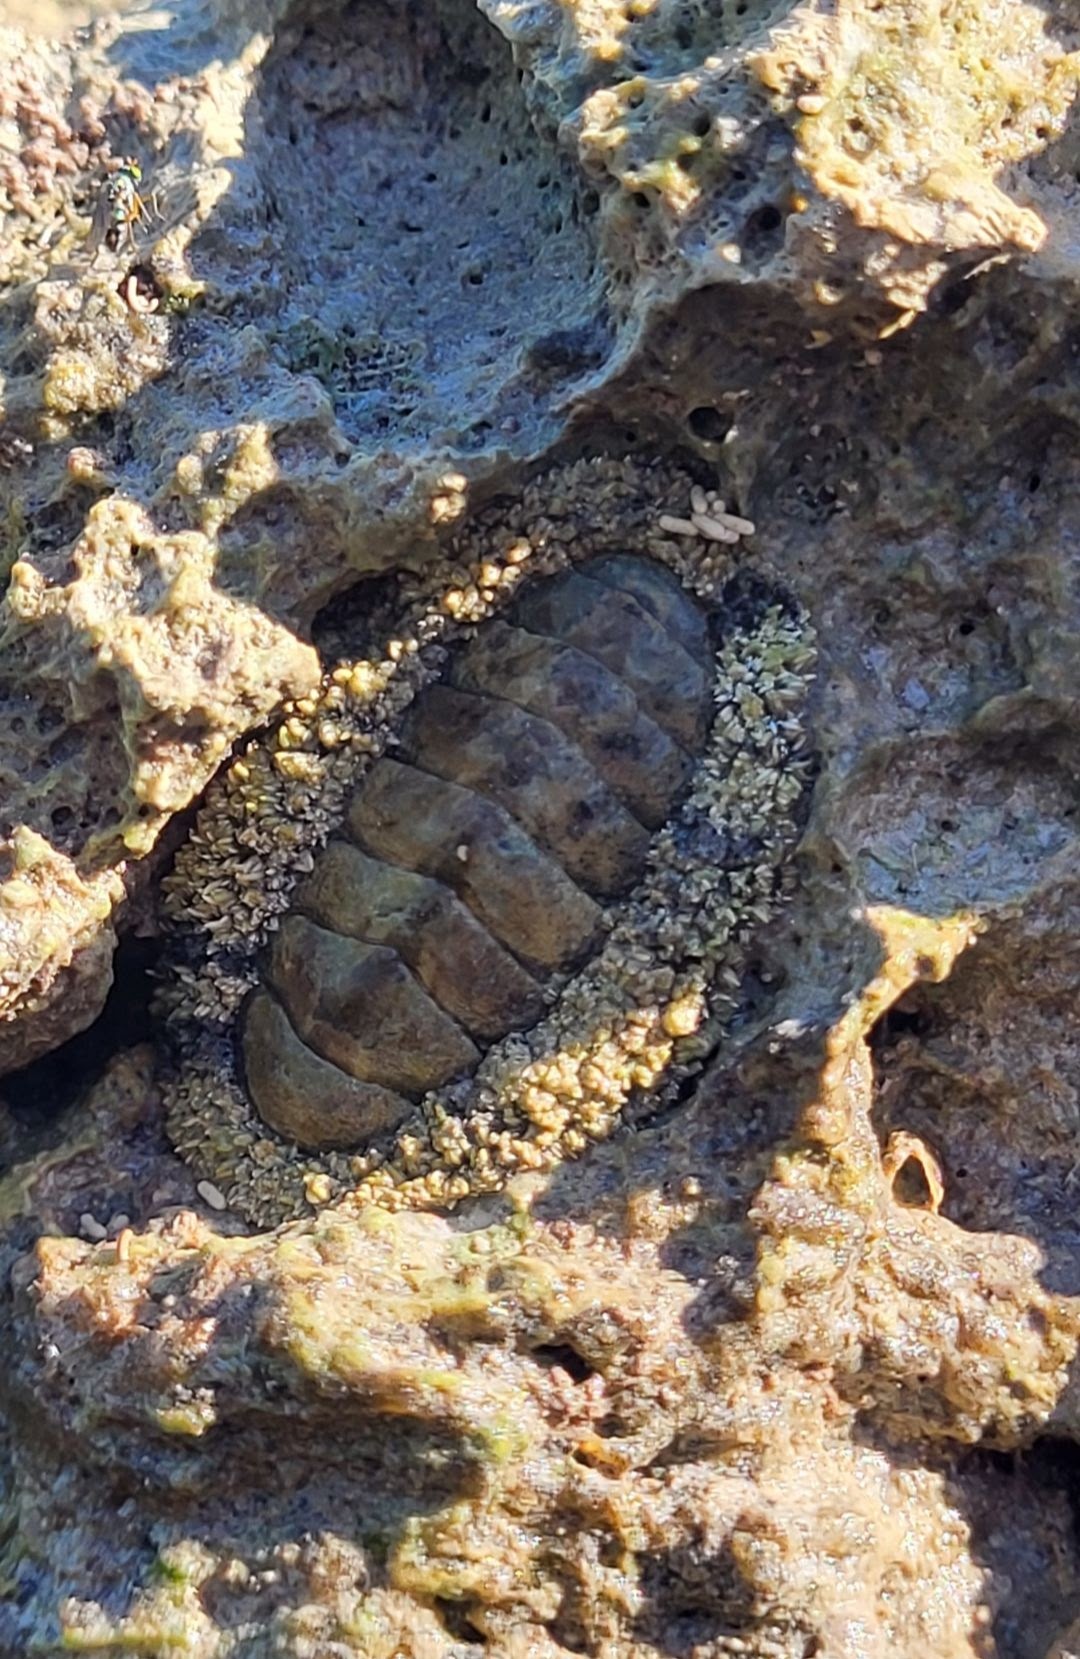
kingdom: Animalia
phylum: Mollusca
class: Polyplacophora
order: Chitonida
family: Chitonidae
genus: Acanthopleura
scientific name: Acanthopleura granulata
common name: West indian fuzzy chiton
